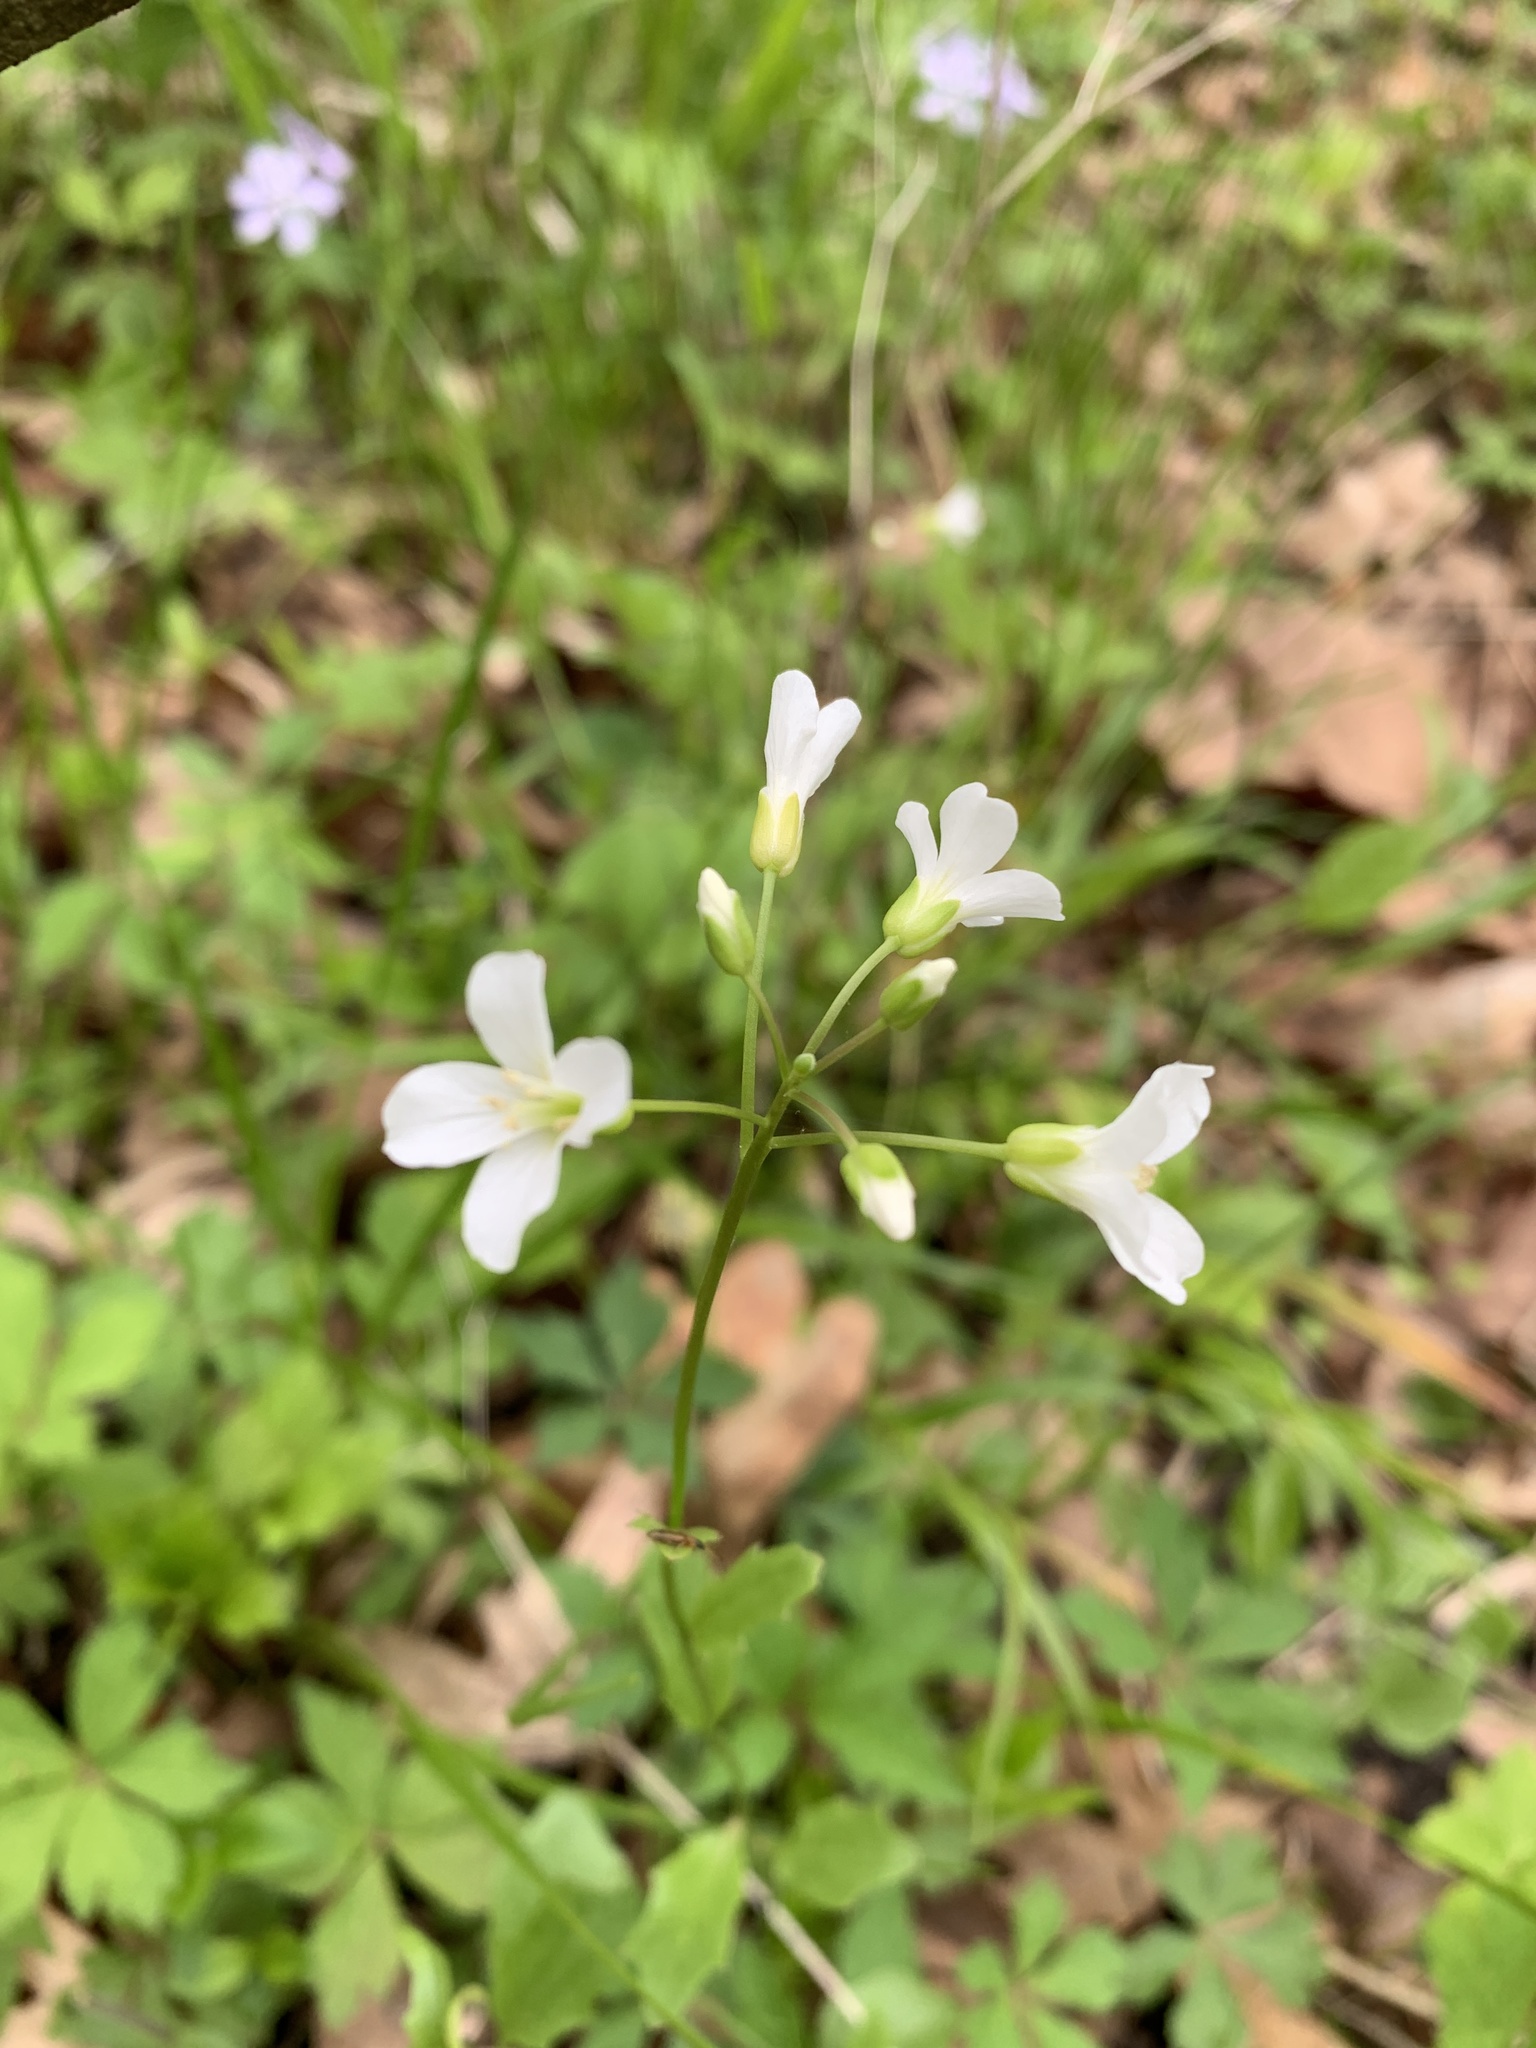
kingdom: Plantae
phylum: Tracheophyta
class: Magnoliopsida
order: Brassicales
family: Brassicaceae
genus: Cardamine
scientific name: Cardamine bulbosa
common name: Spring cress
